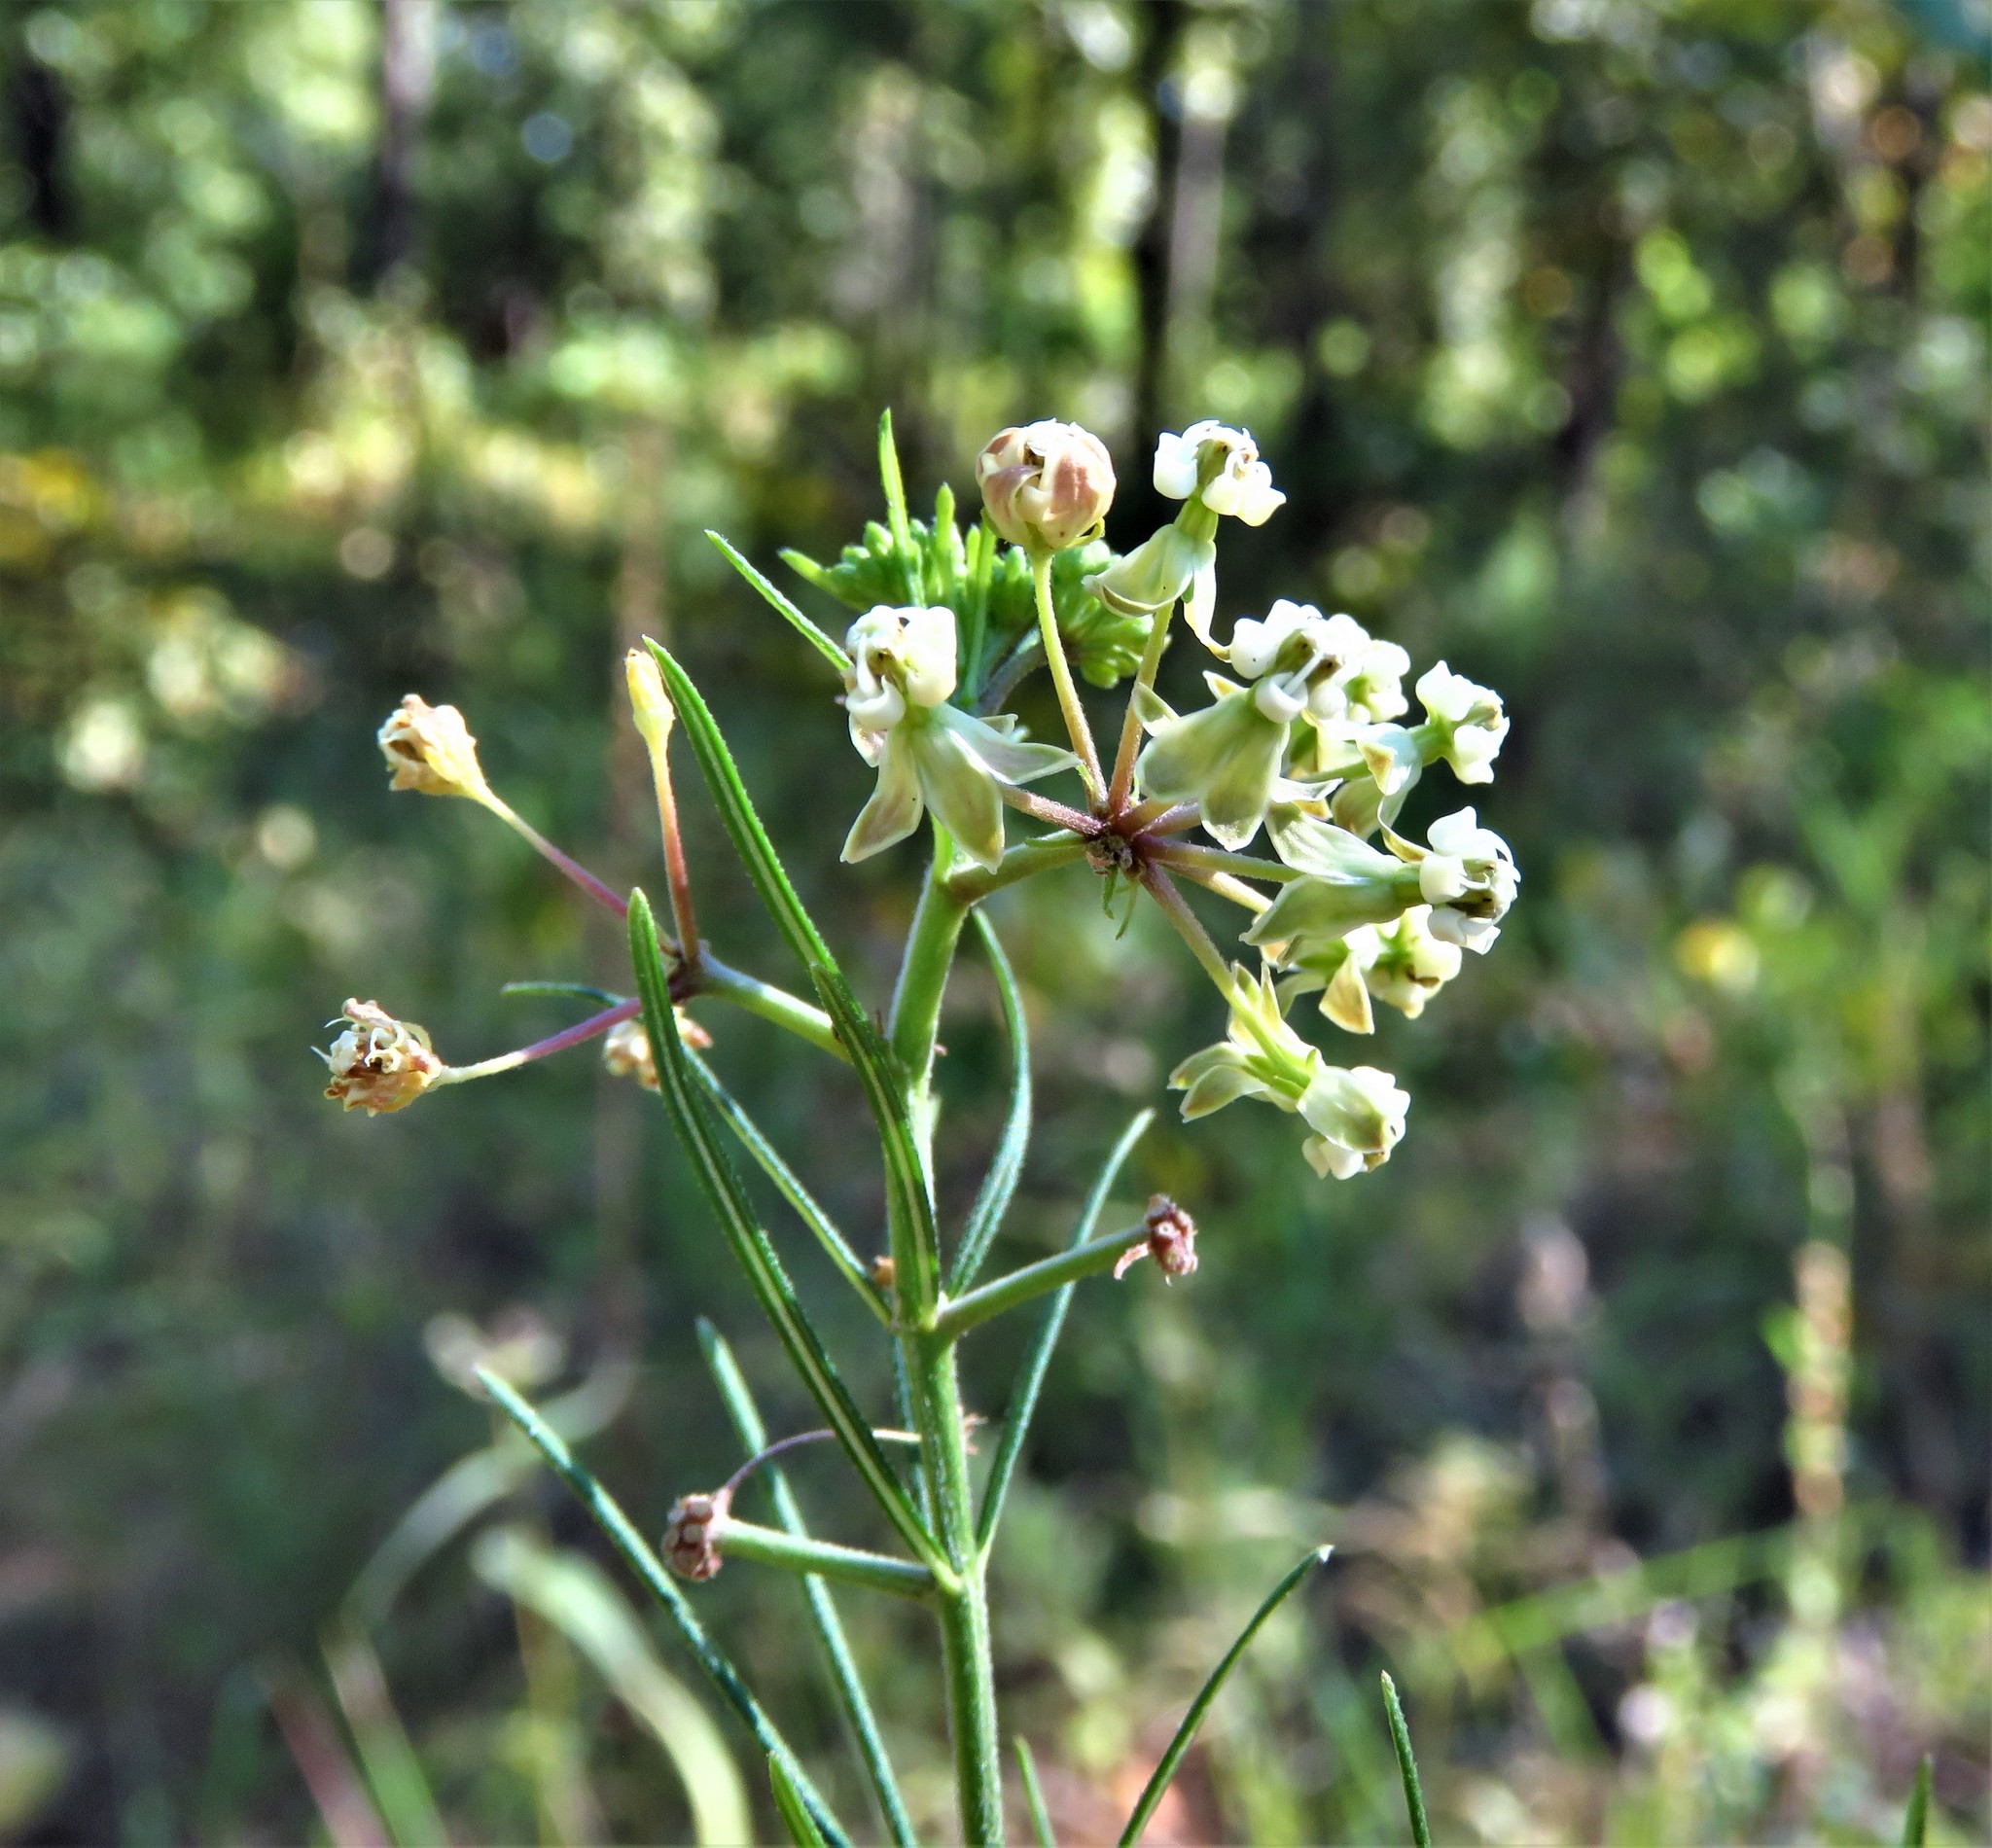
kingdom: Plantae
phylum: Tracheophyta
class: Magnoliopsida
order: Gentianales
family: Apocynaceae
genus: Asclepias
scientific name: Asclepias verticillata
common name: Eastern whorled milkweed
